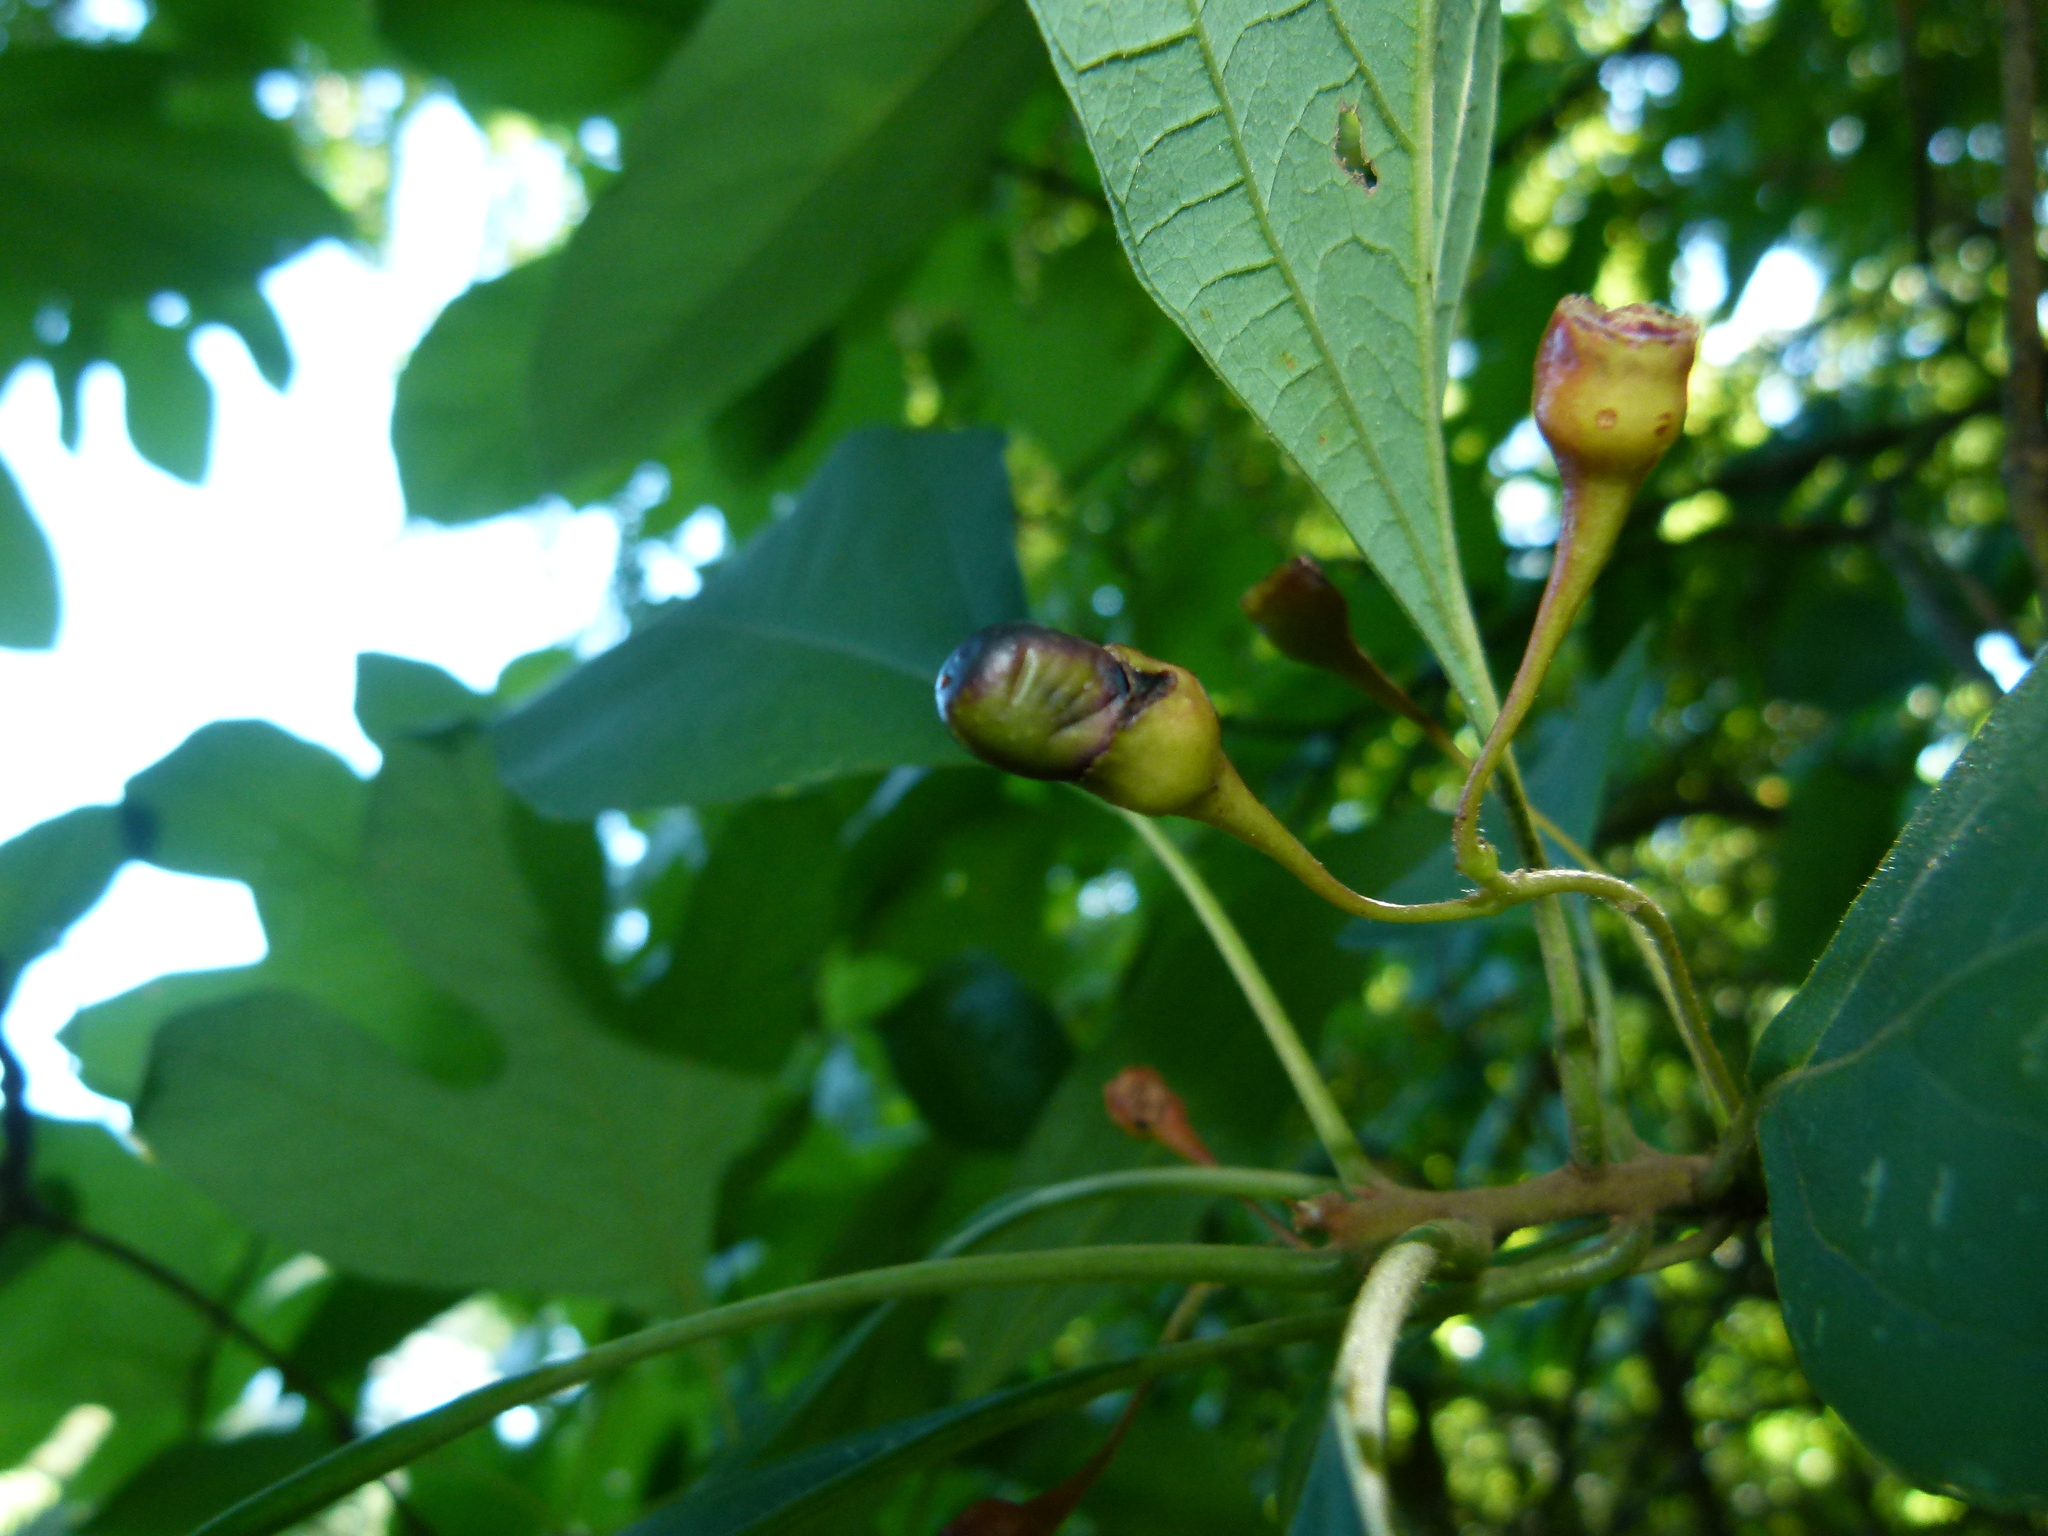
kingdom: Plantae
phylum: Tracheophyta
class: Magnoliopsida
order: Laurales
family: Lauraceae
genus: Sassafras
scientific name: Sassafras albidum
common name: Sassafras
